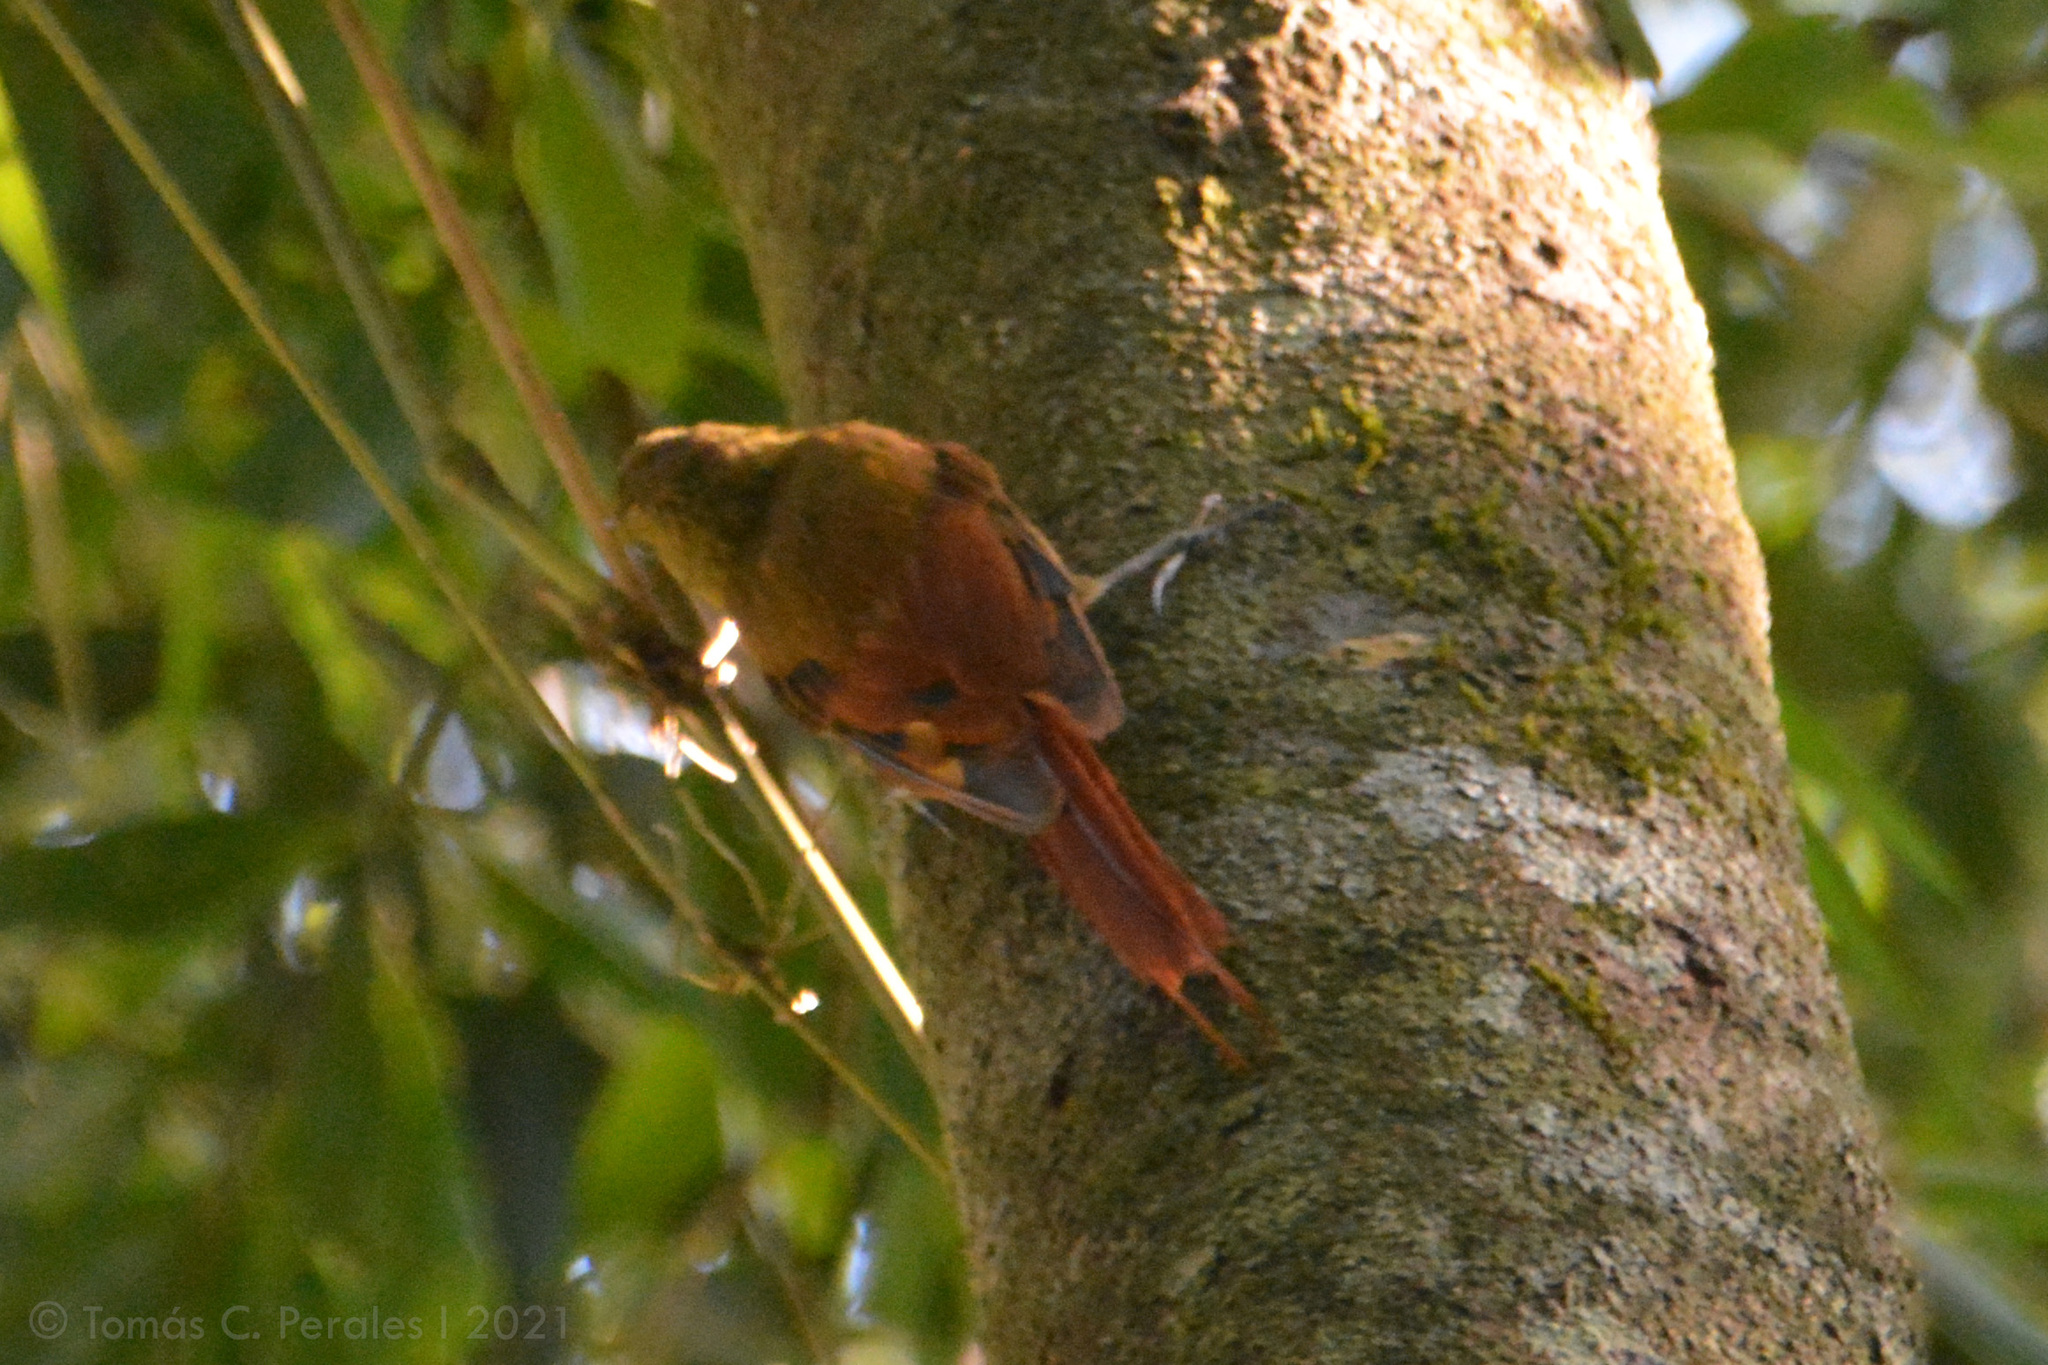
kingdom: Animalia
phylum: Chordata
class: Aves
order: Passeriformes
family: Furnariidae
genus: Sittasomus
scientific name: Sittasomus griseicapillus
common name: Olivaceous woodcreeper
